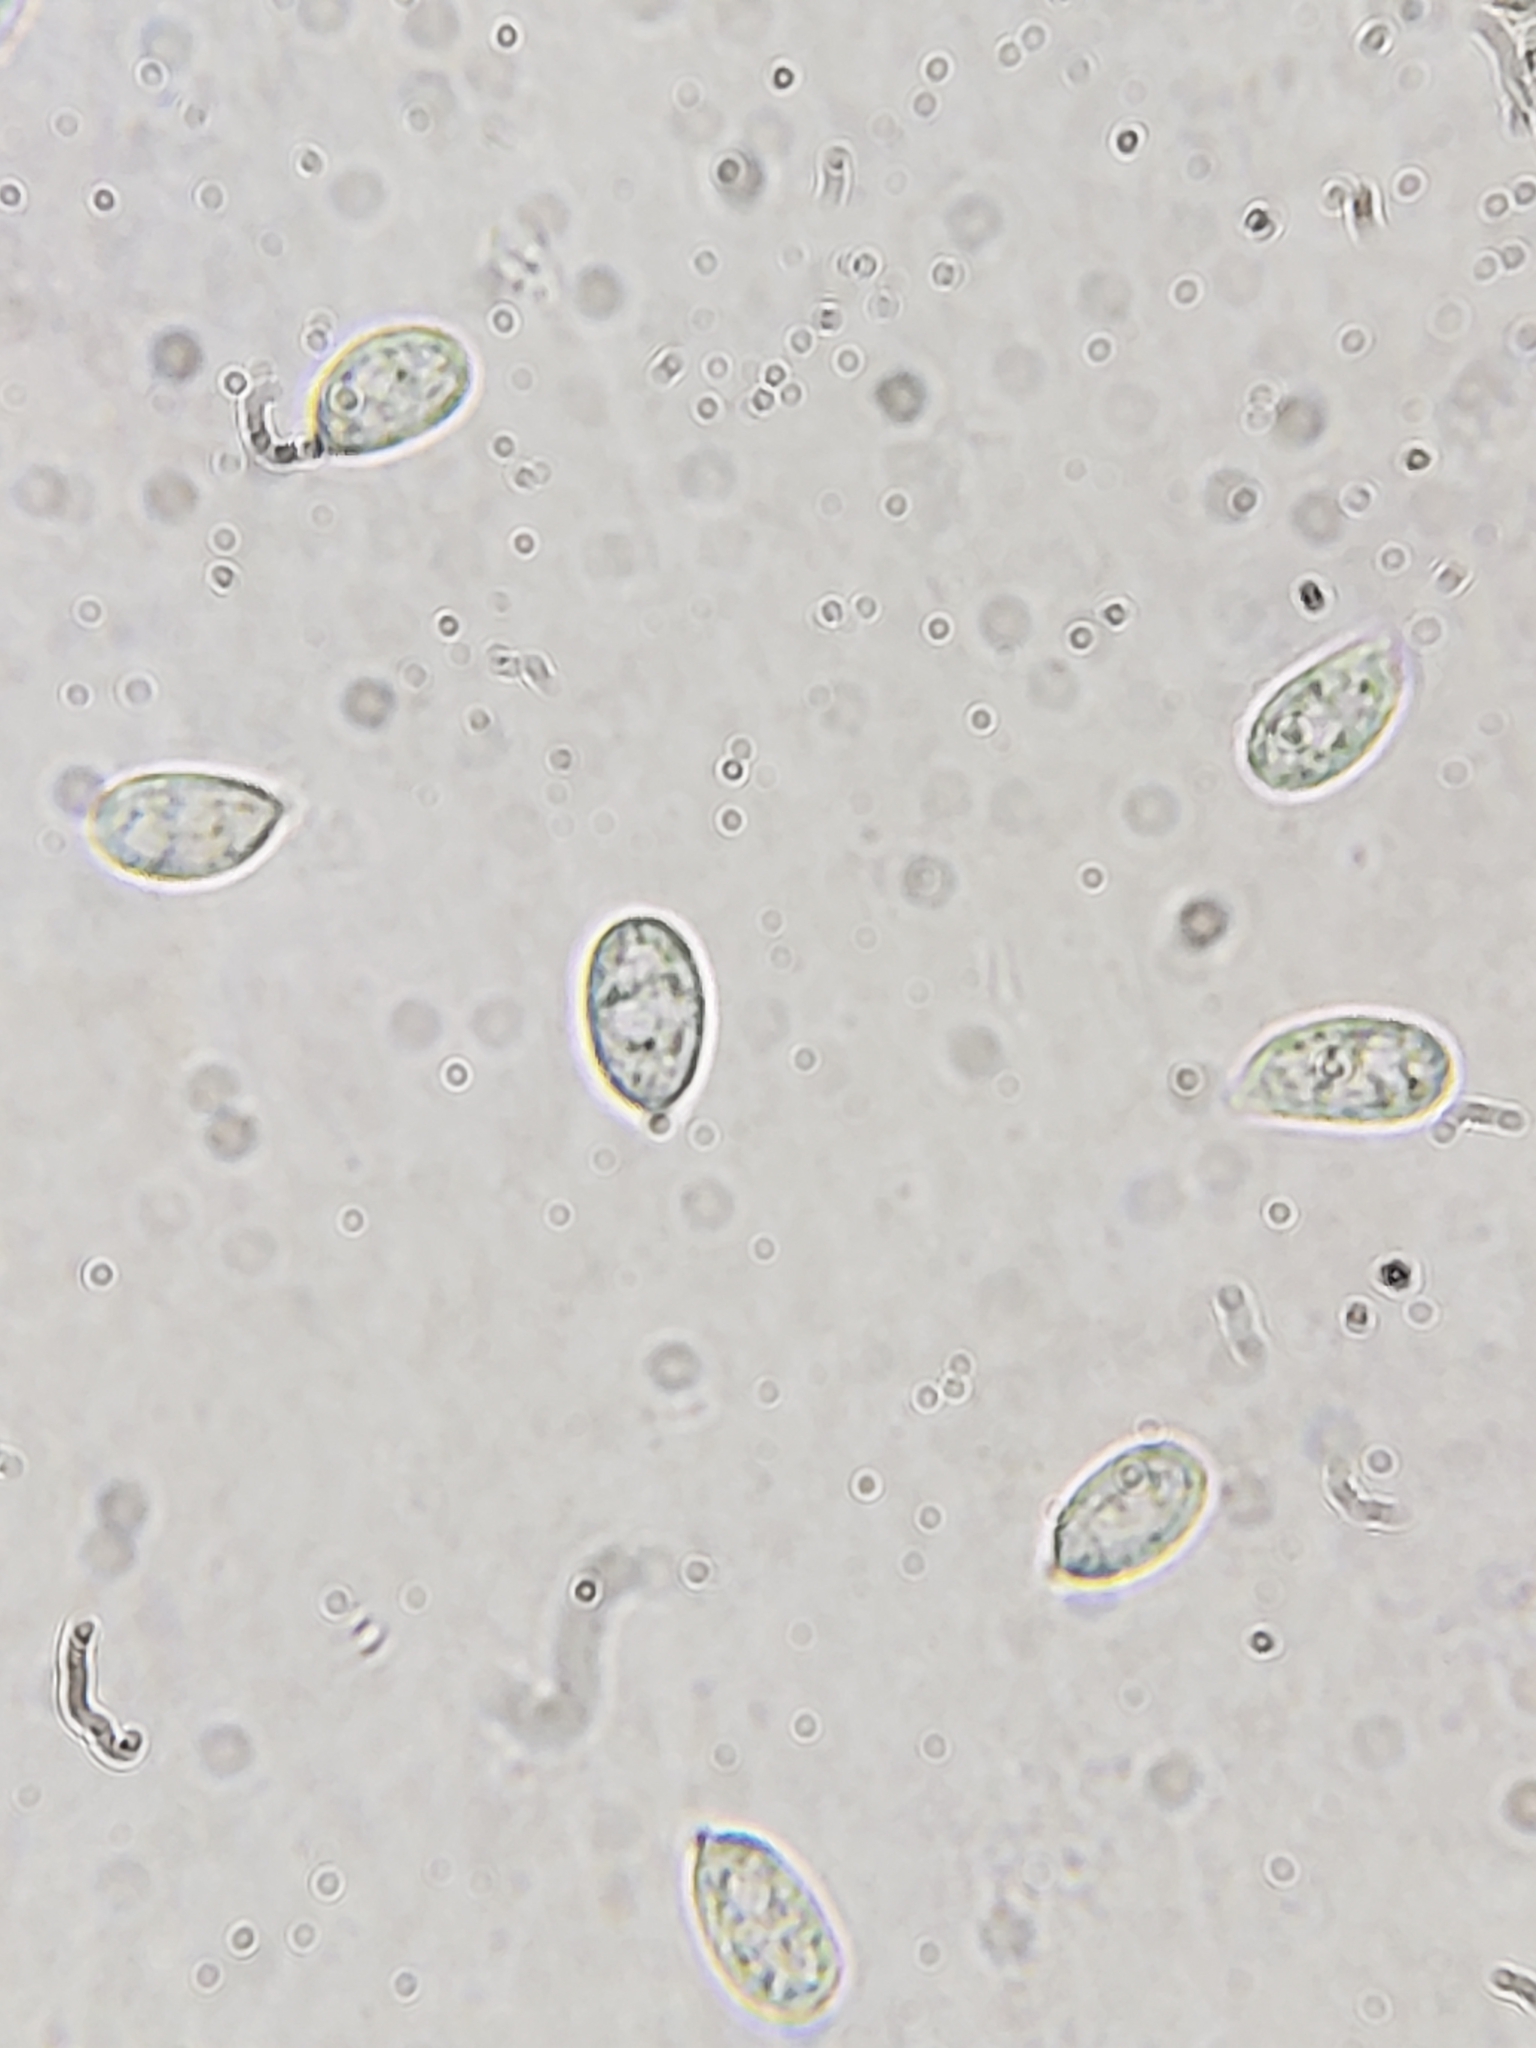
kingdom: Fungi
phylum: Basidiomycota
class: Agaricomycetes
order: Agaricales
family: Physalacriaceae
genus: Rhizomarasmius
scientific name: Rhizomarasmius pyrrhocephalus
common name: Hairy long stem marasmius
